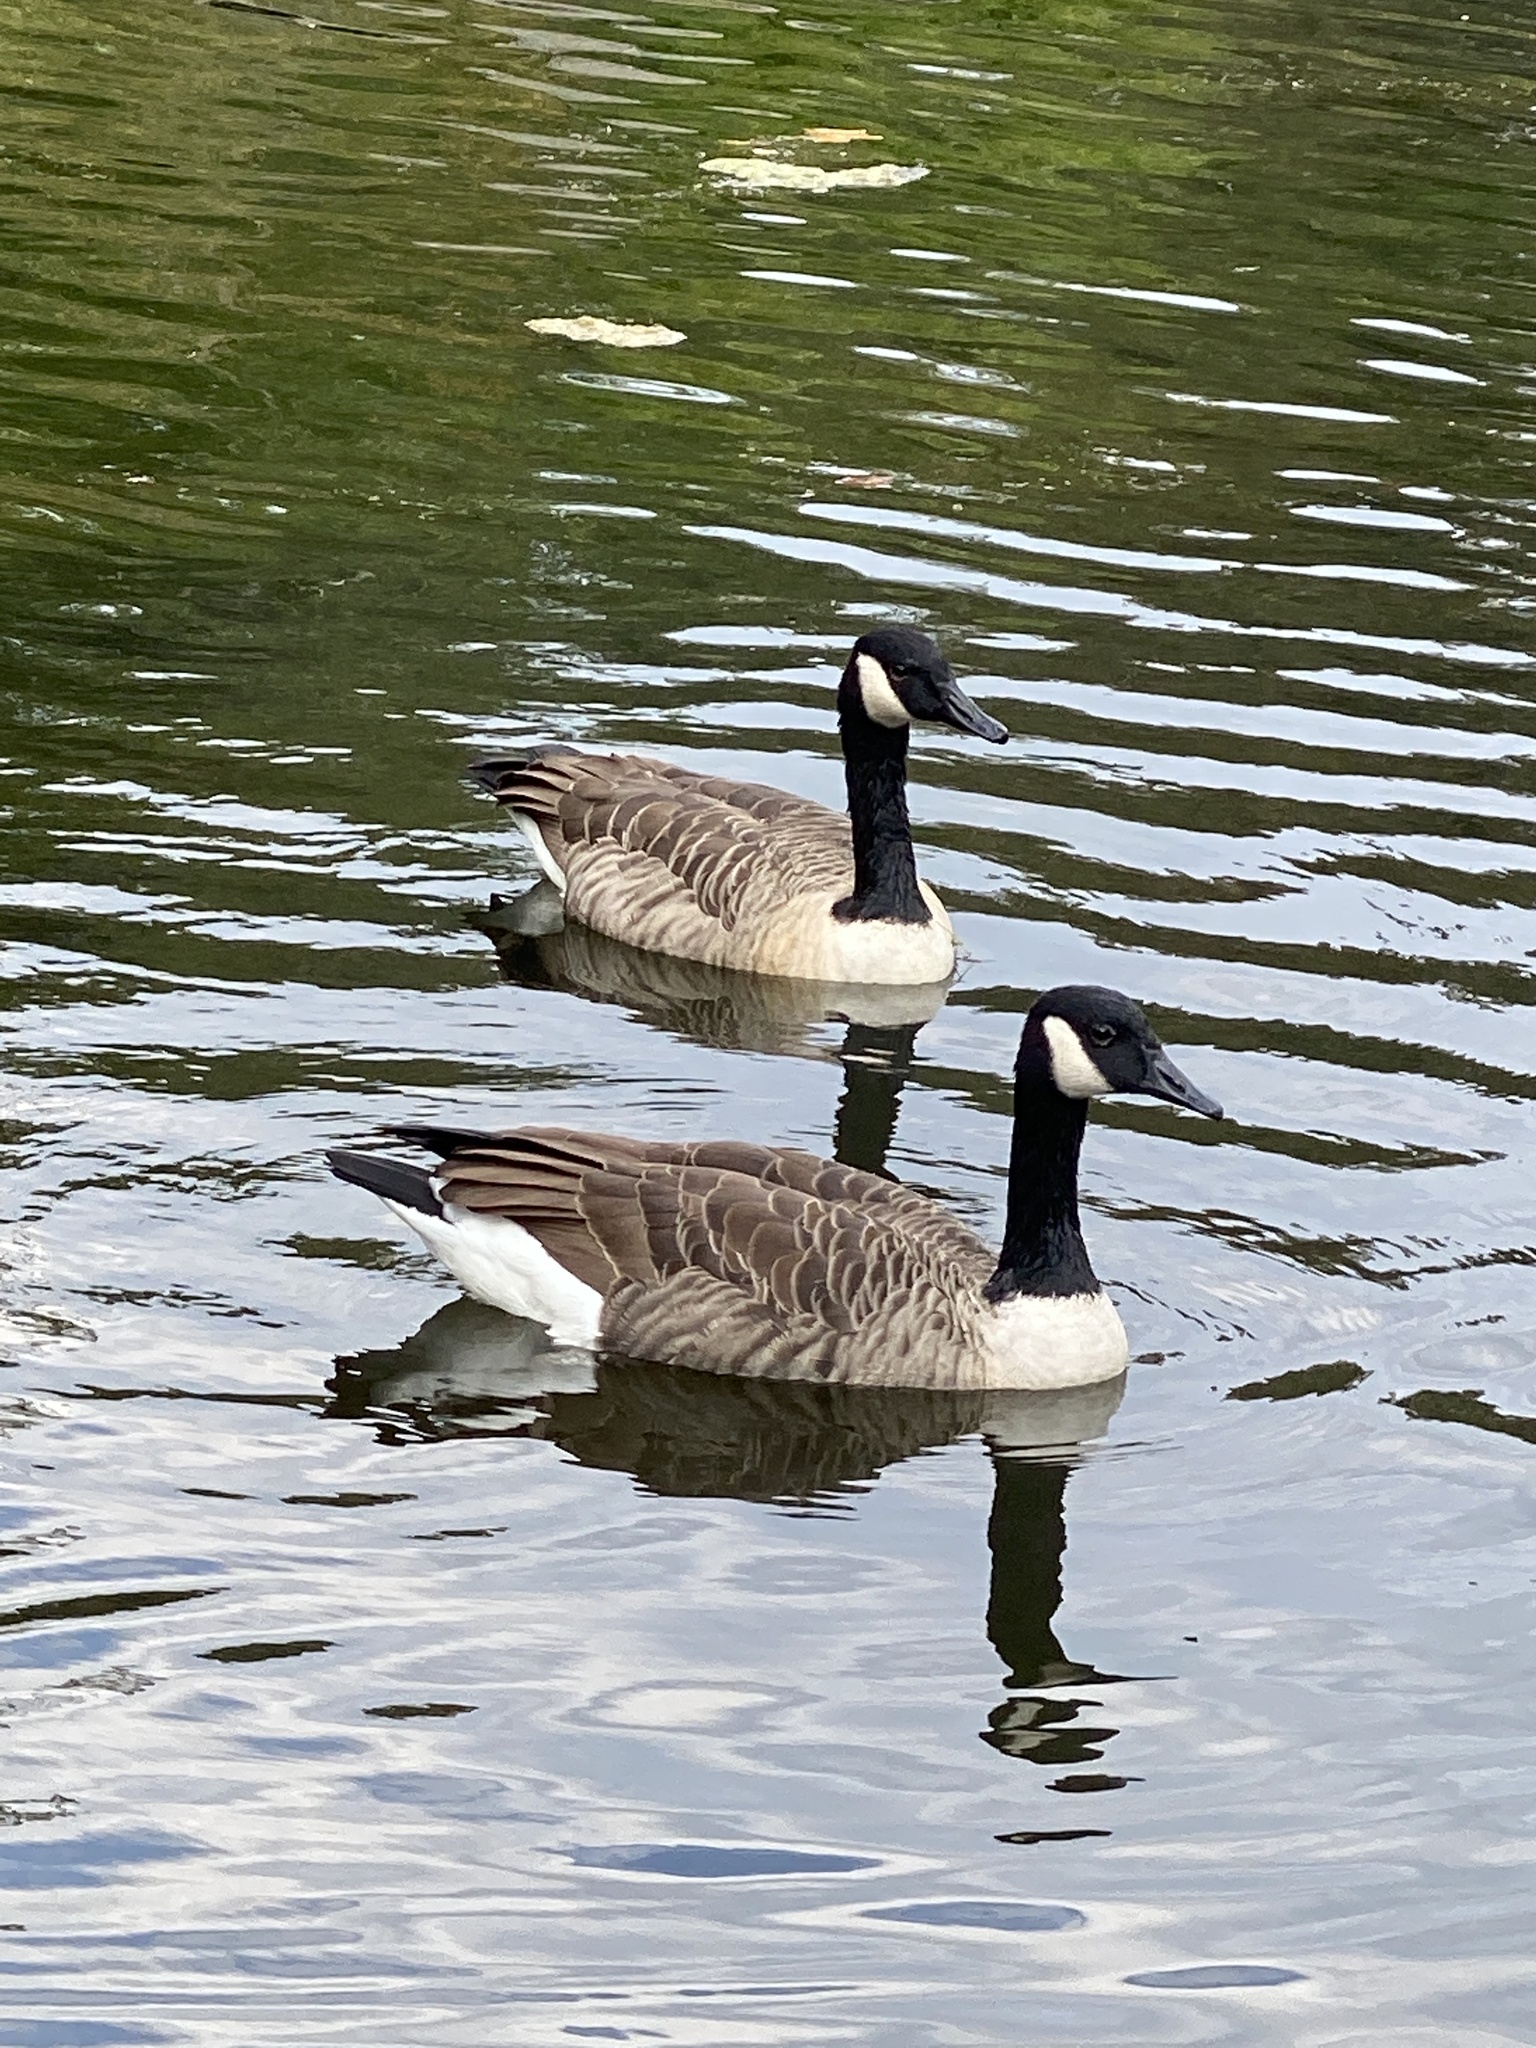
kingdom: Animalia
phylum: Chordata
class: Aves
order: Anseriformes
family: Anatidae
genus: Branta
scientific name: Branta canadensis
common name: Canada goose
